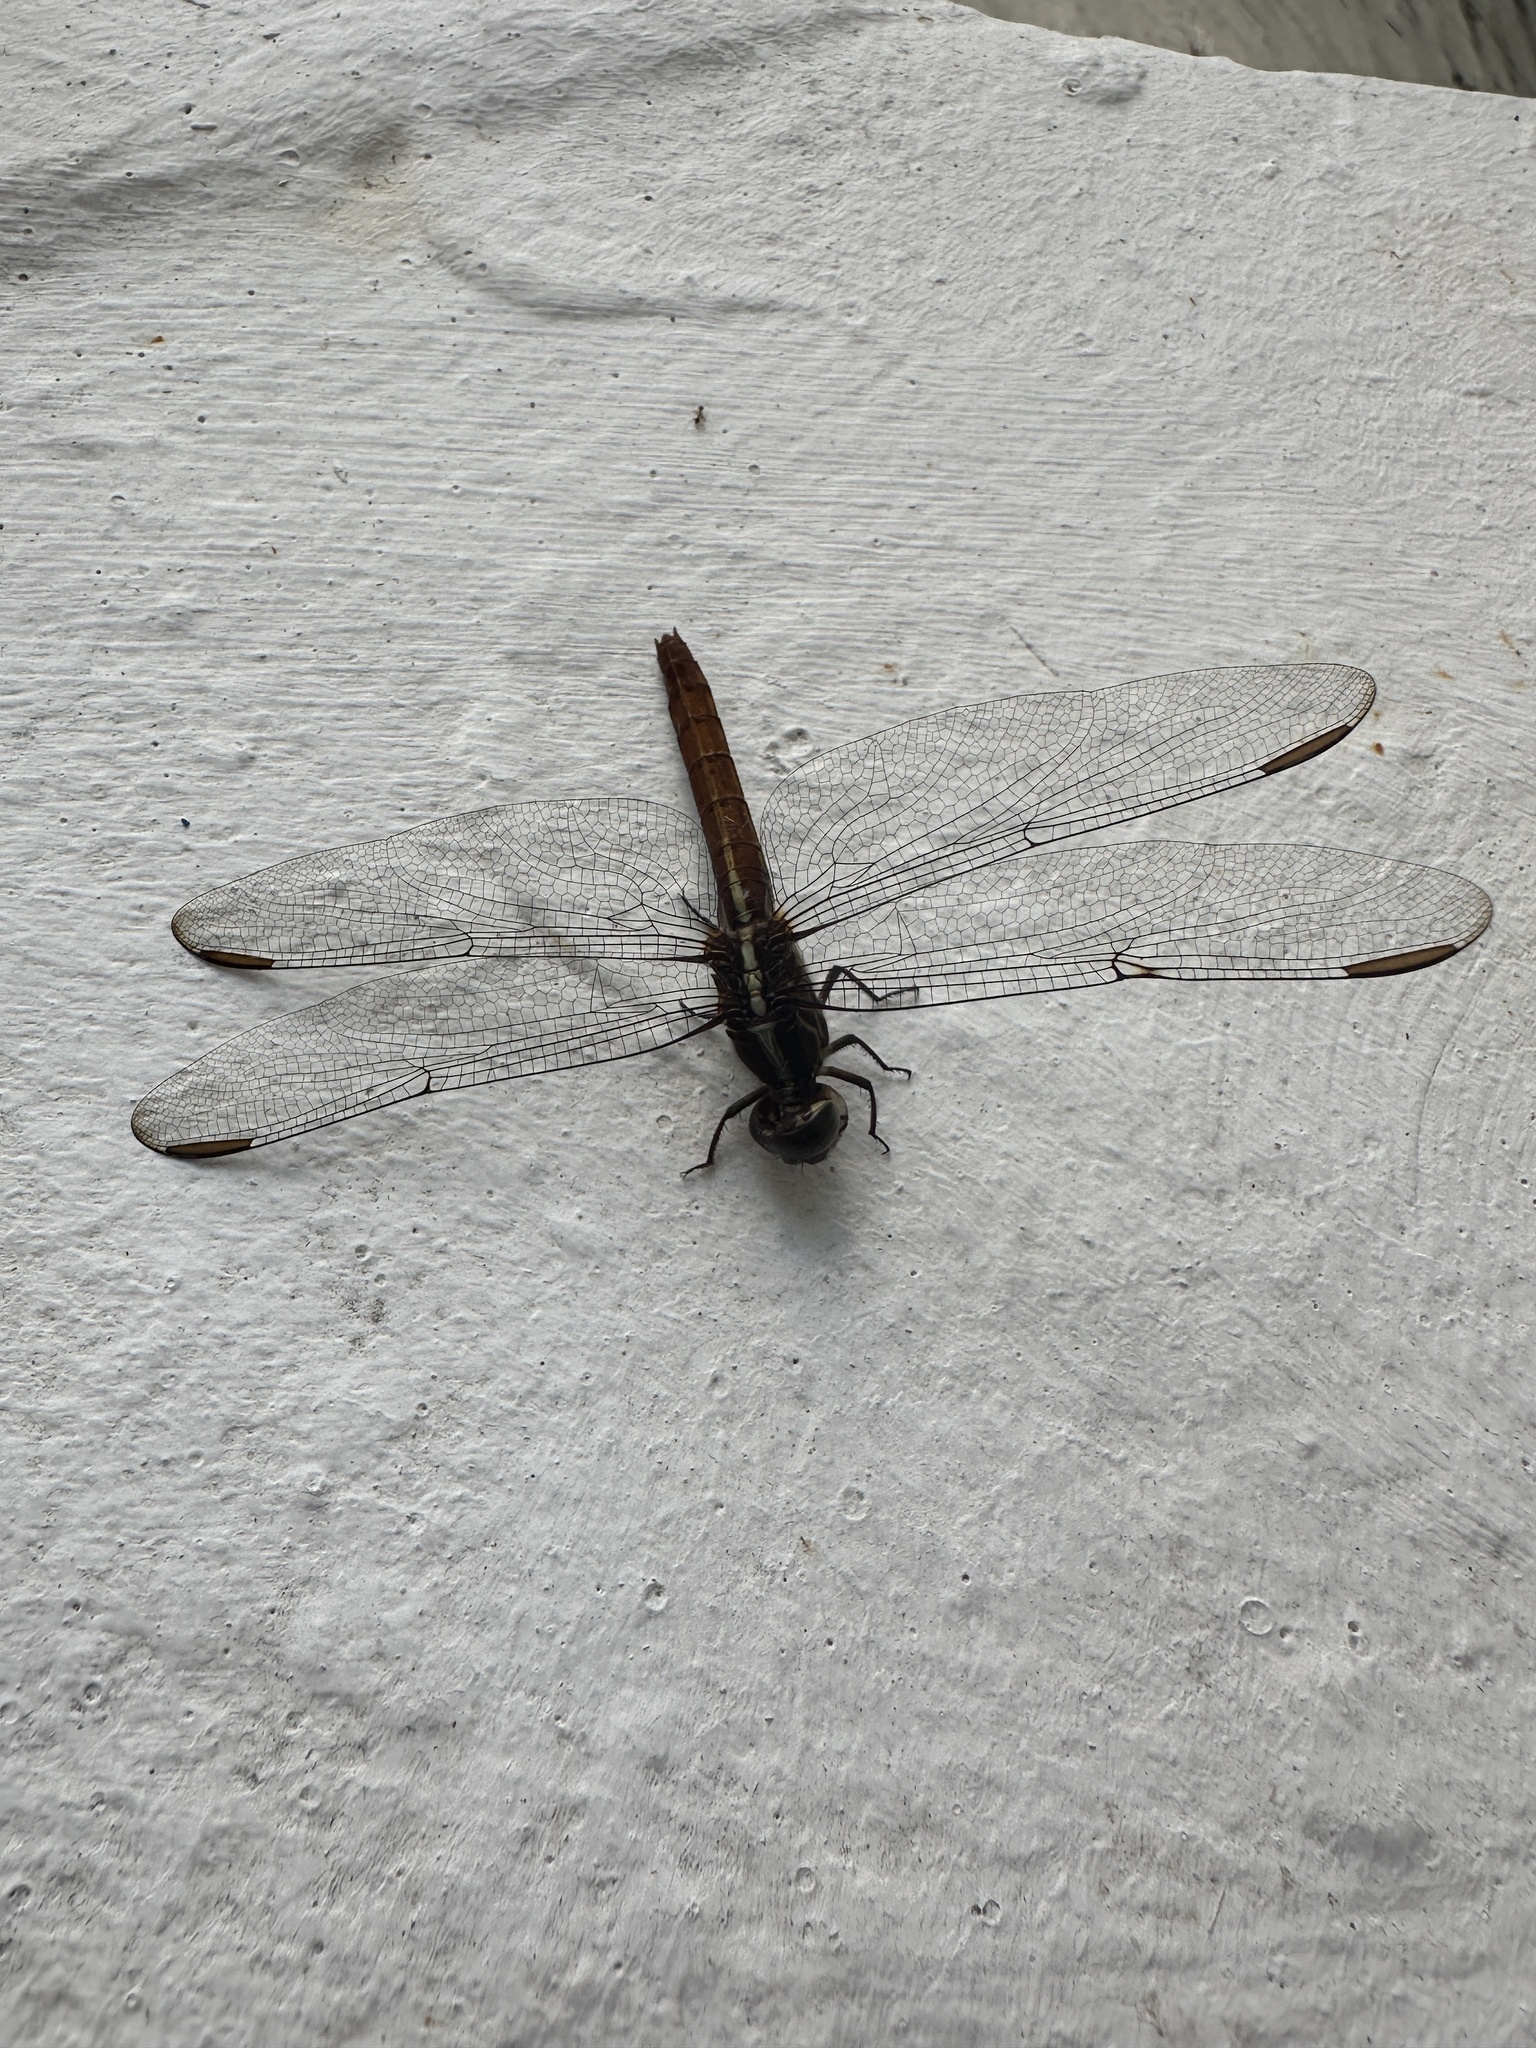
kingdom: Animalia
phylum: Arthropoda
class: Insecta
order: Odonata
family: Libellulidae
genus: Orthemis
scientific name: Orthemis ferruginea
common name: Roseate skimmer
